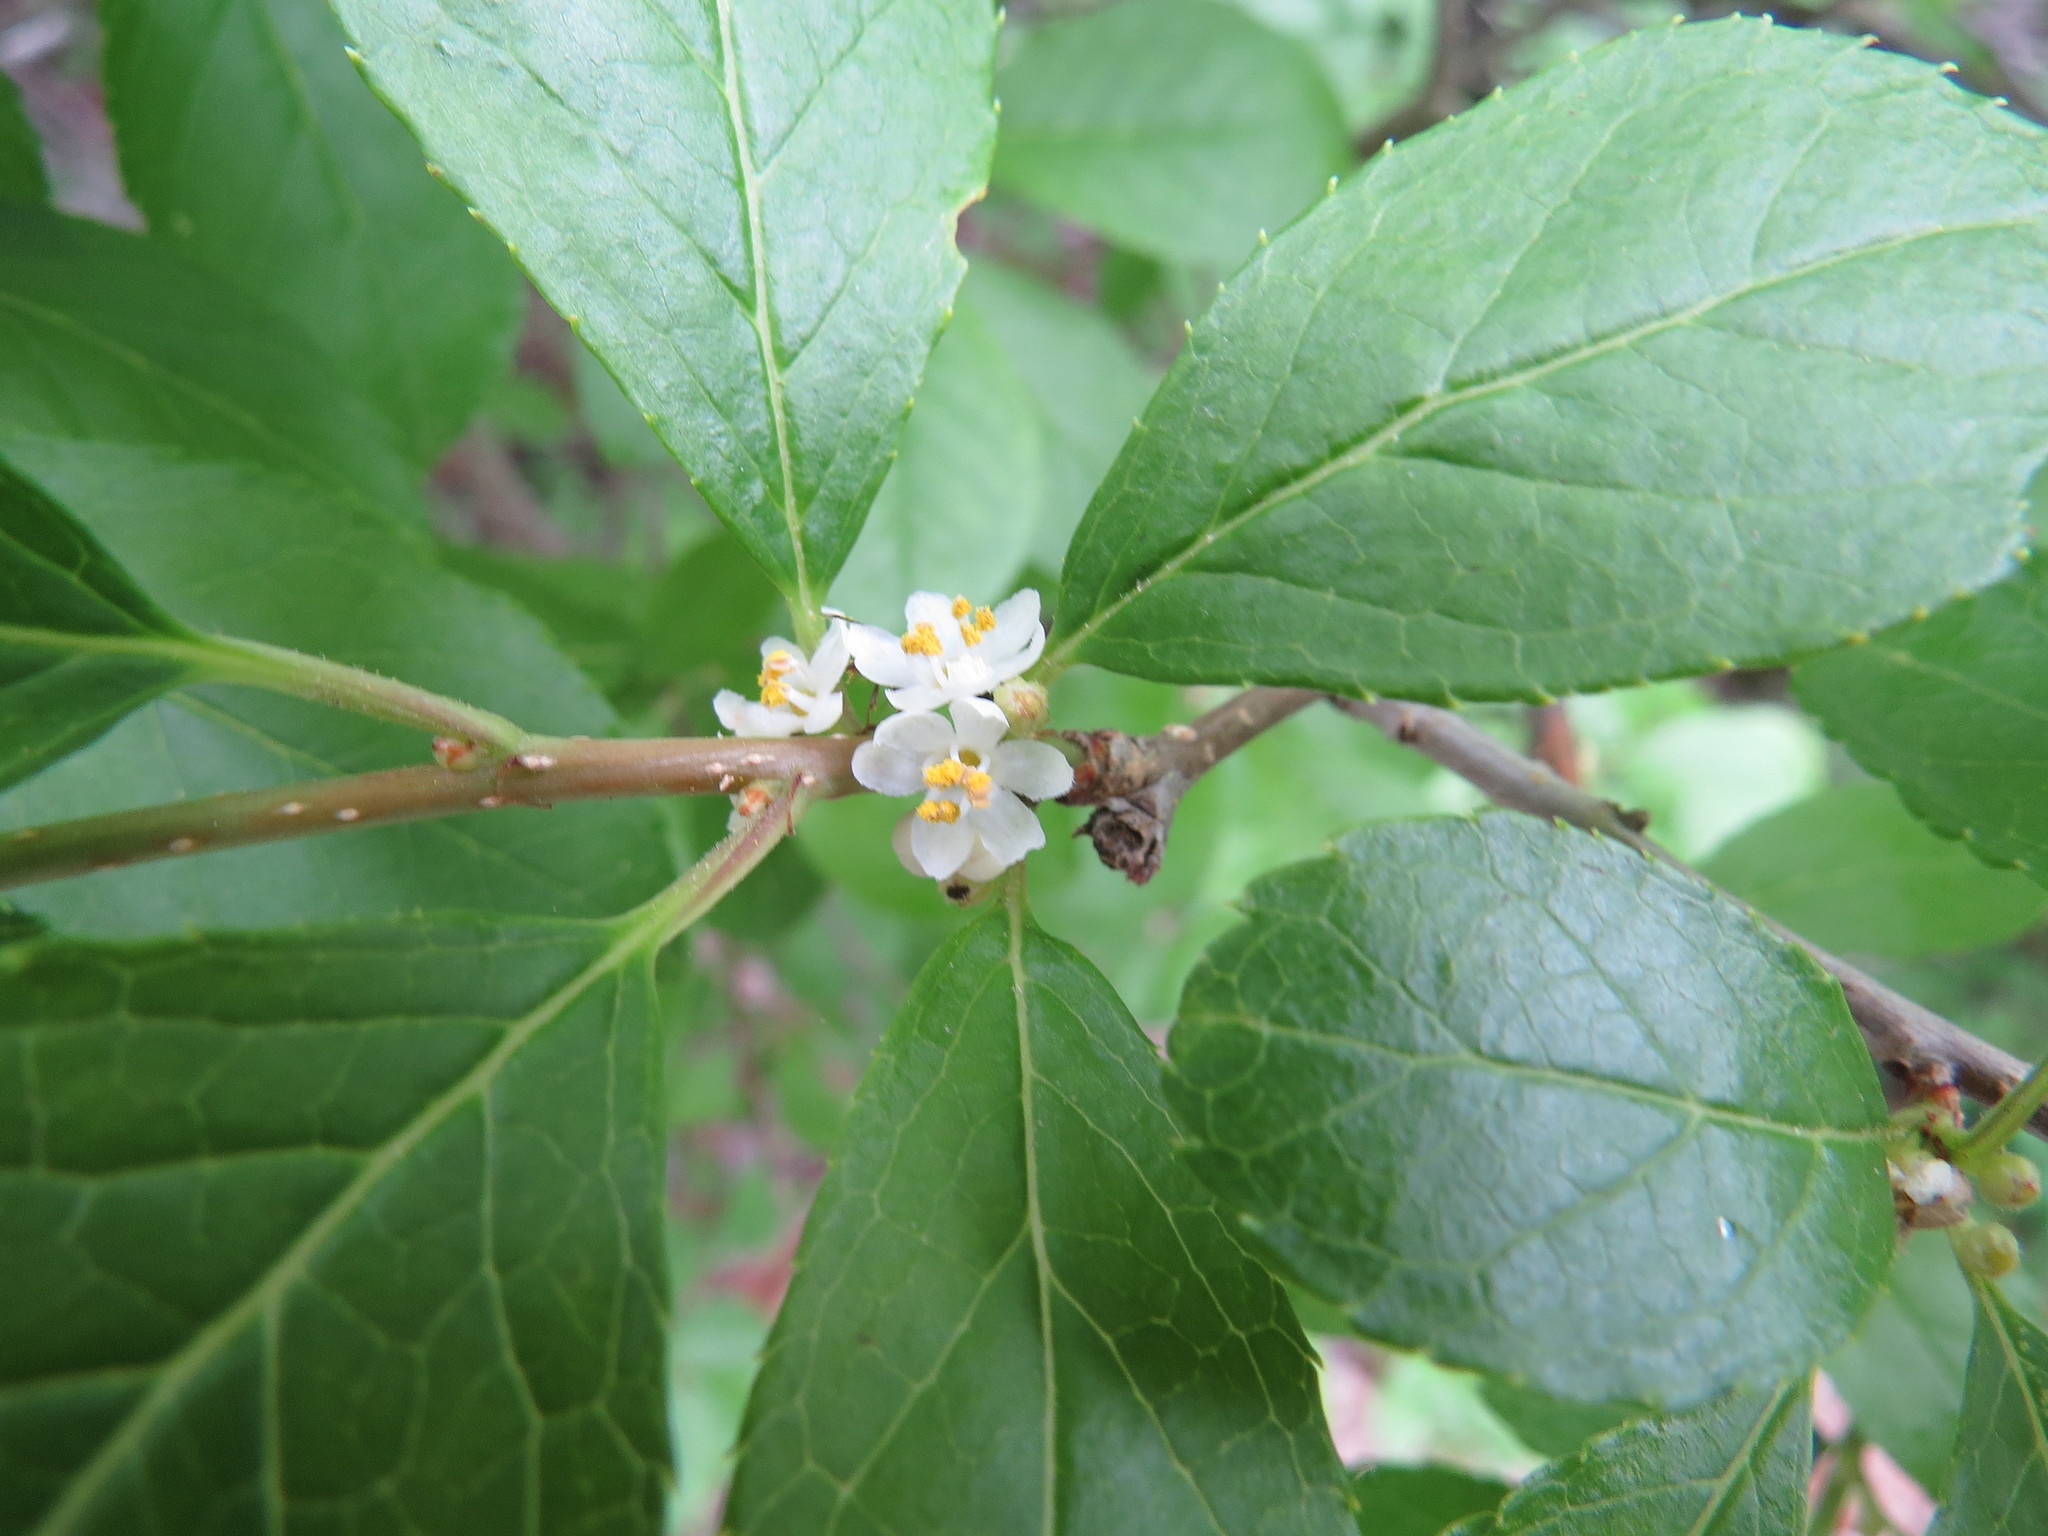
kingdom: Plantae
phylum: Tracheophyta
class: Magnoliopsida
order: Aquifoliales
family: Aquifoliaceae
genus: Ilex
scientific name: Ilex verticillata
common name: Virginia winterberry
